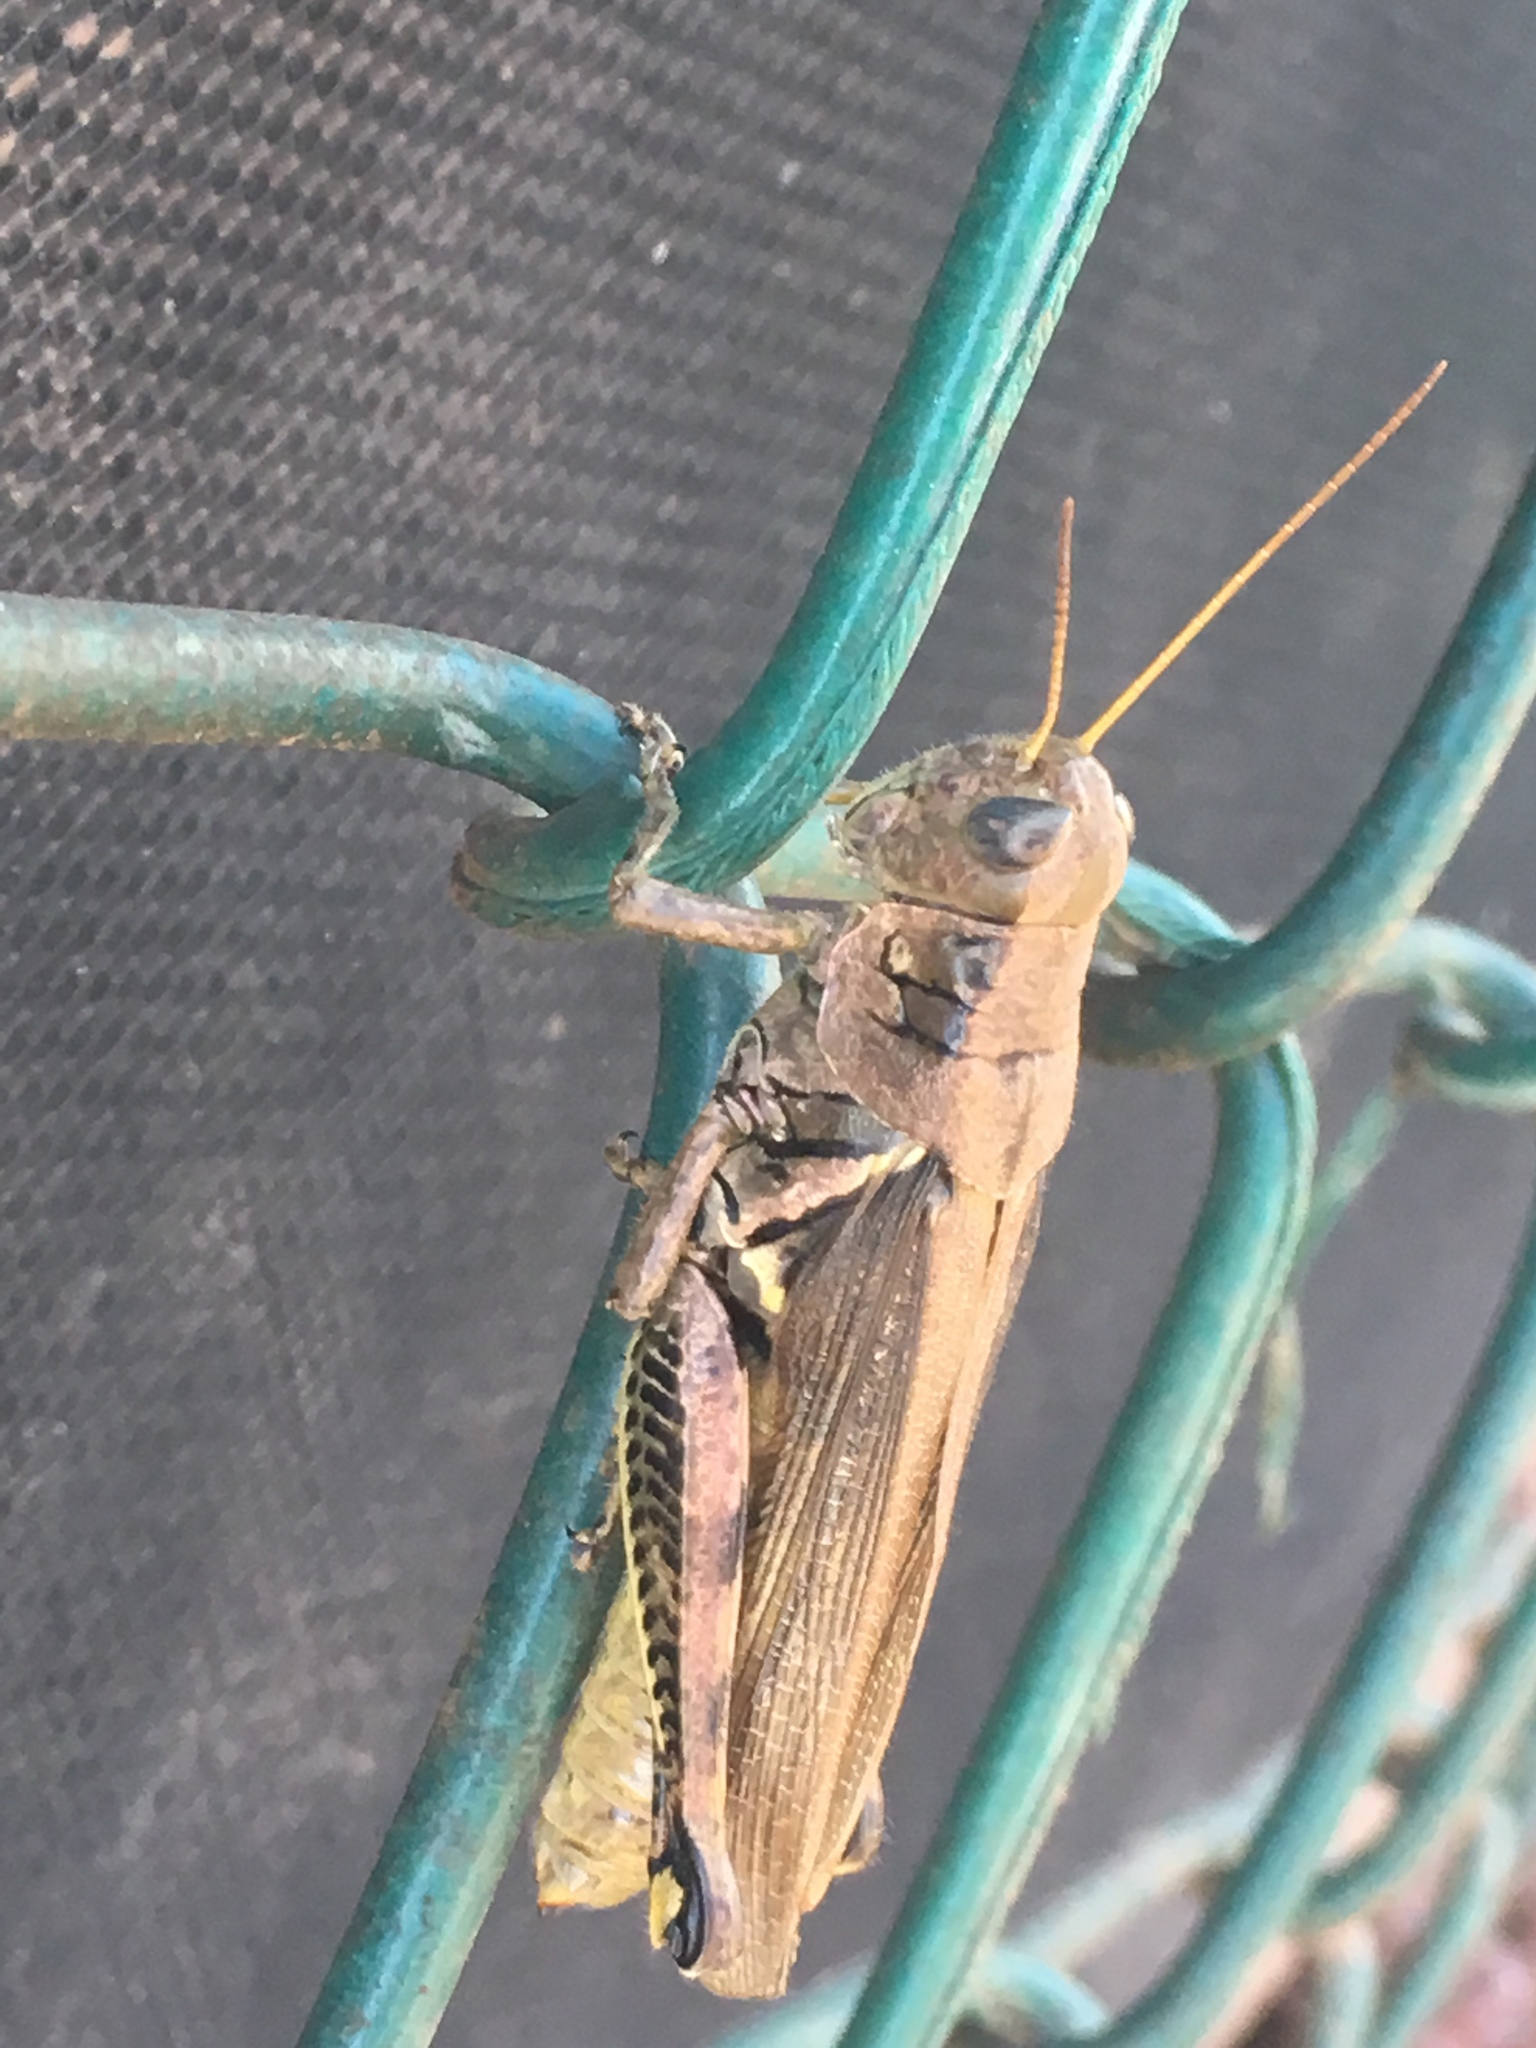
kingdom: Animalia
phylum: Arthropoda
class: Insecta
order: Orthoptera
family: Acrididae
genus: Melanoplus
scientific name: Melanoplus differentialis
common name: Differential grasshopper
